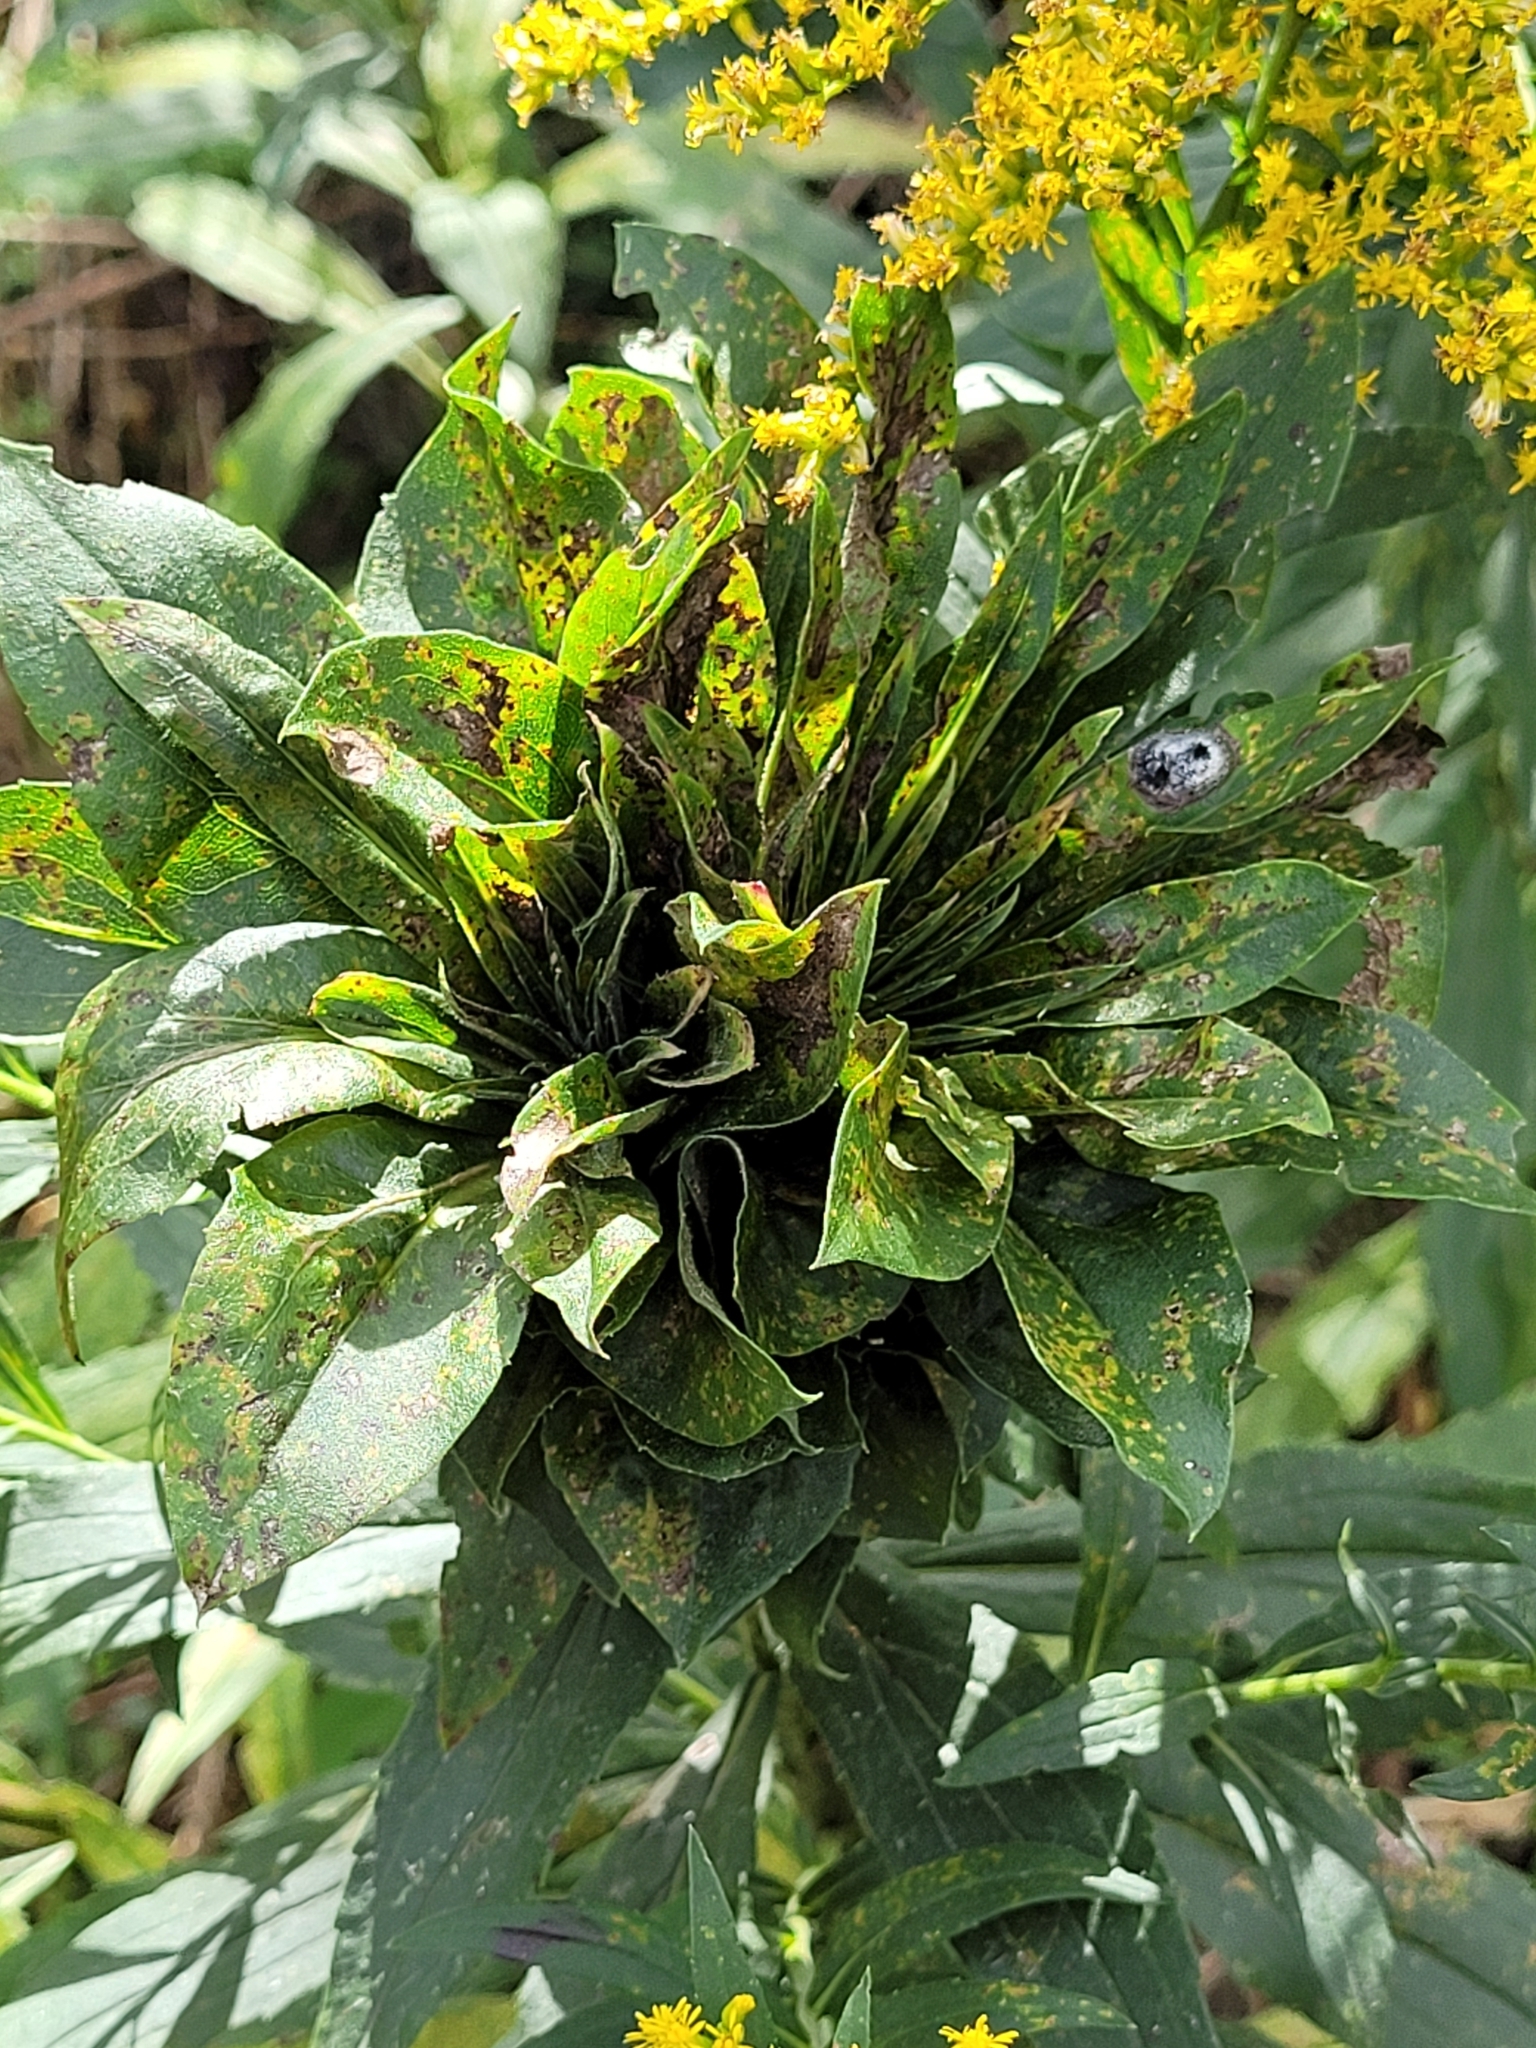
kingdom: Animalia
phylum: Arthropoda
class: Insecta
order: Diptera
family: Cecidomyiidae
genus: Rhopalomyia
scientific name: Rhopalomyia solidaginis
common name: Goldenrod bunch gall midge
